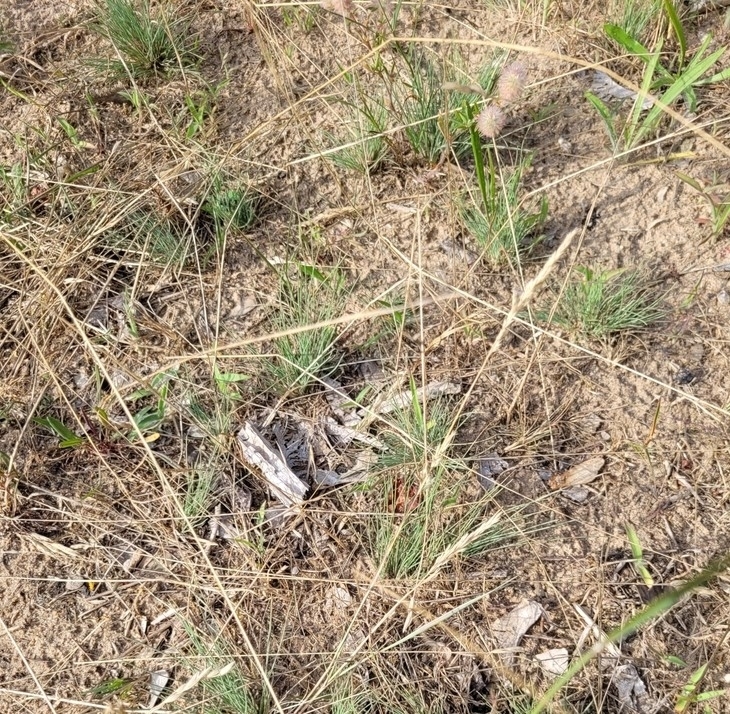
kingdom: Plantae
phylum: Tracheophyta
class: Liliopsida
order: Poales
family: Poaceae
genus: Corynephorus
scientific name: Corynephorus canescens
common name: Grey hair-grass
